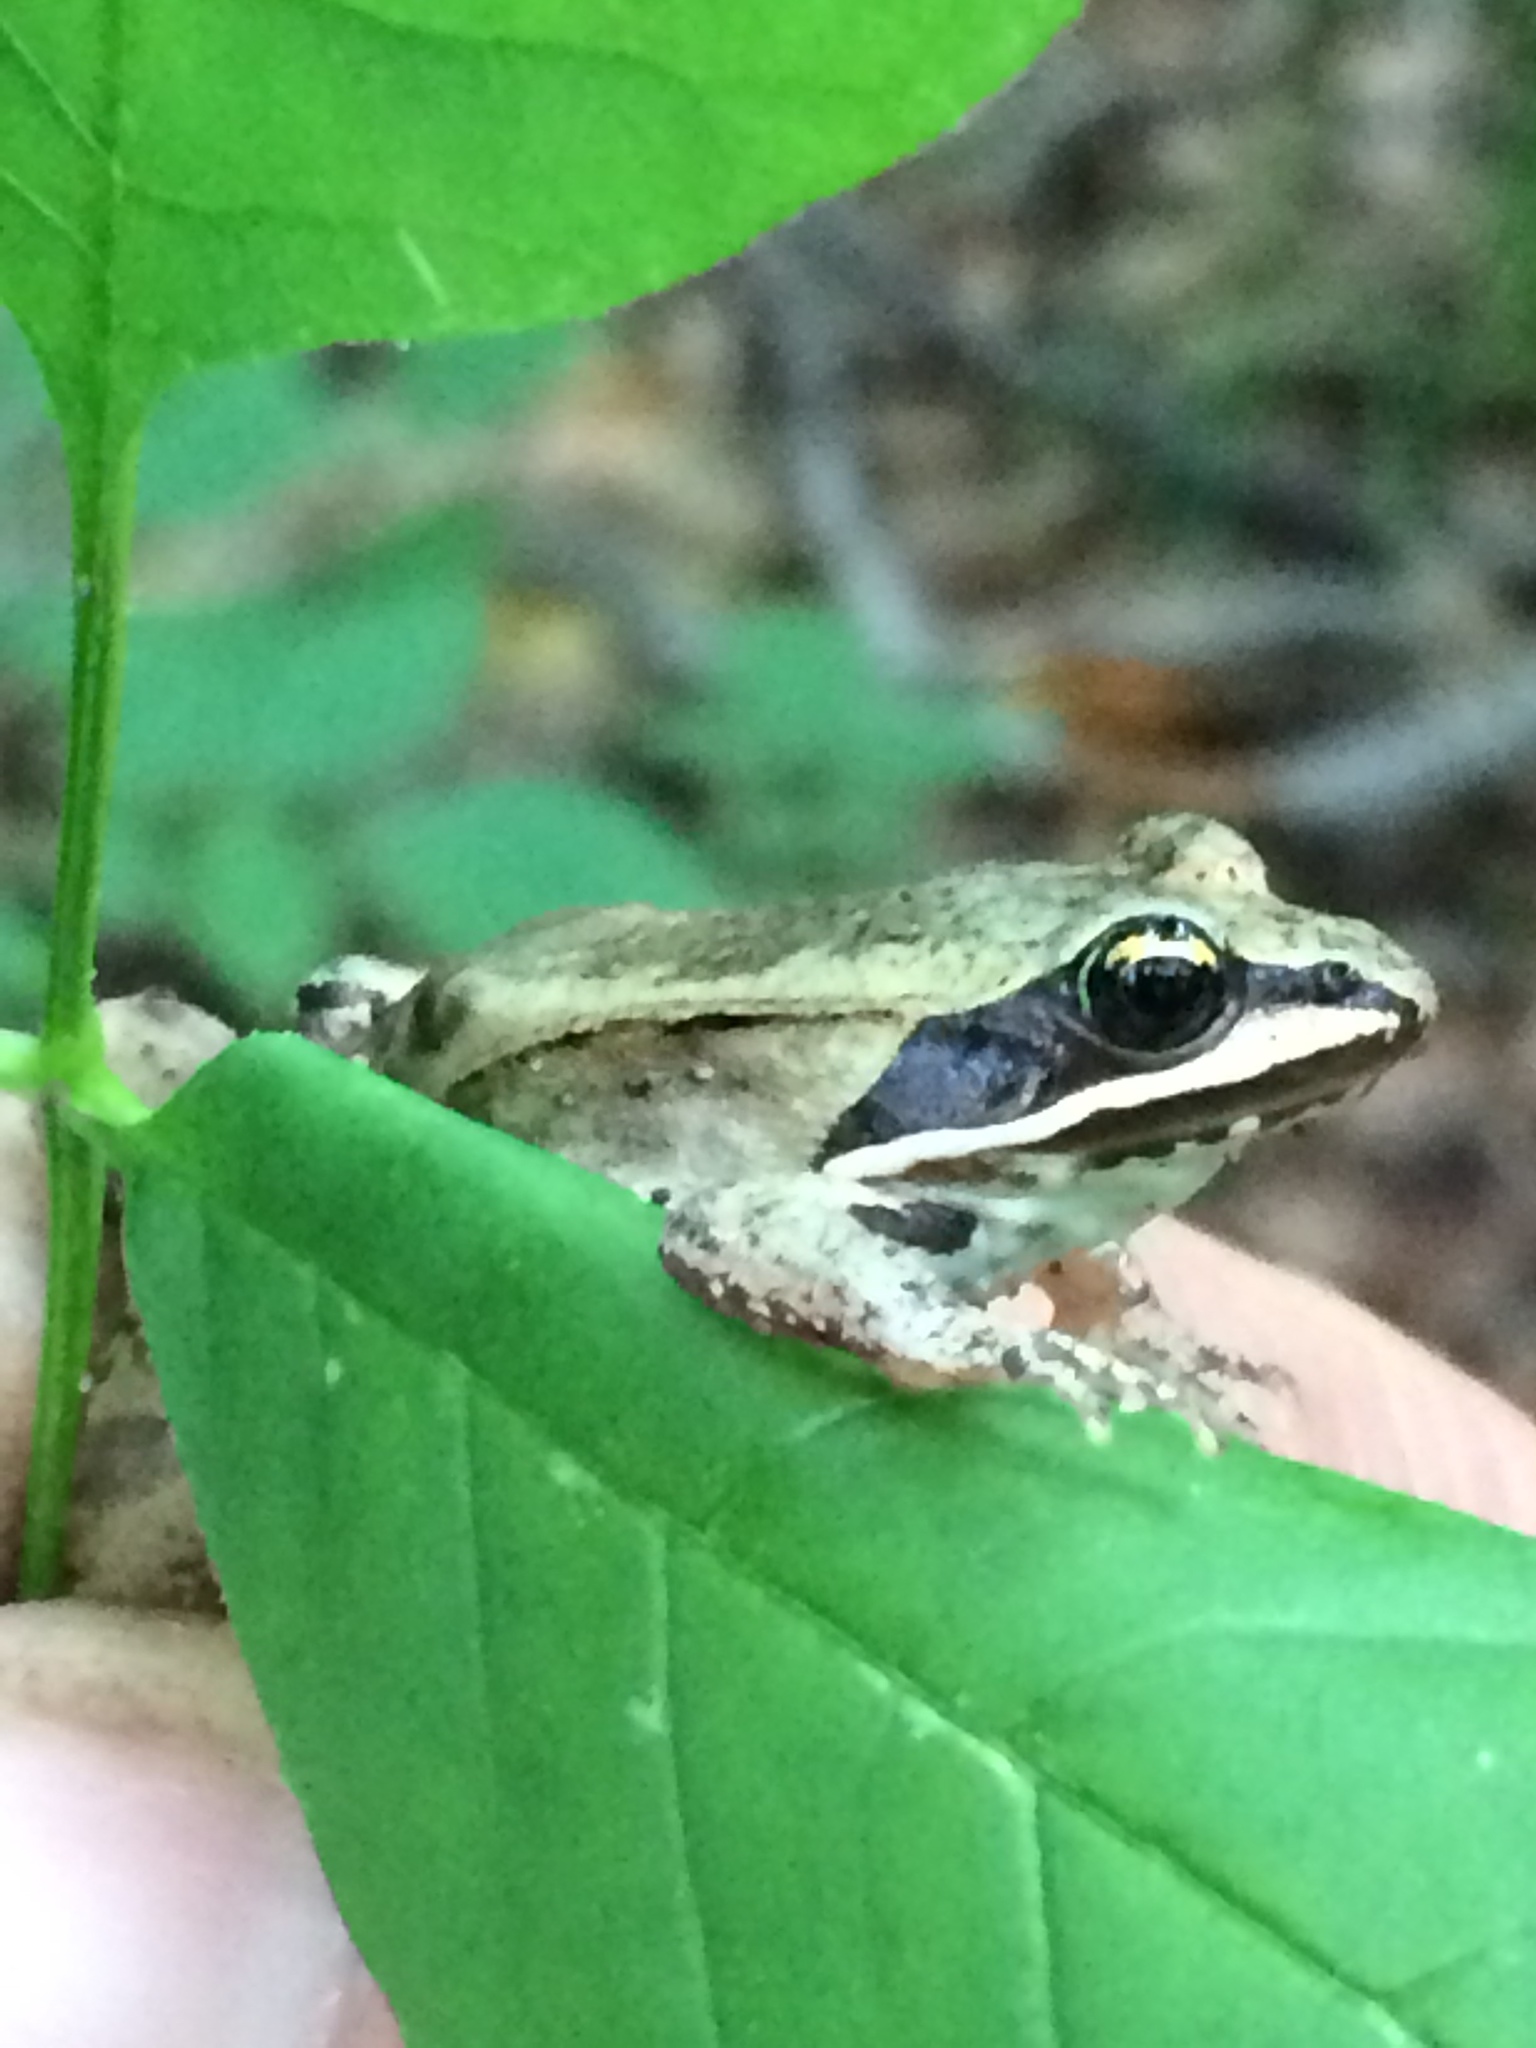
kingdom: Animalia
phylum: Chordata
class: Amphibia
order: Anura
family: Ranidae
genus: Lithobates
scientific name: Lithobates sylvaticus
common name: Wood frog
